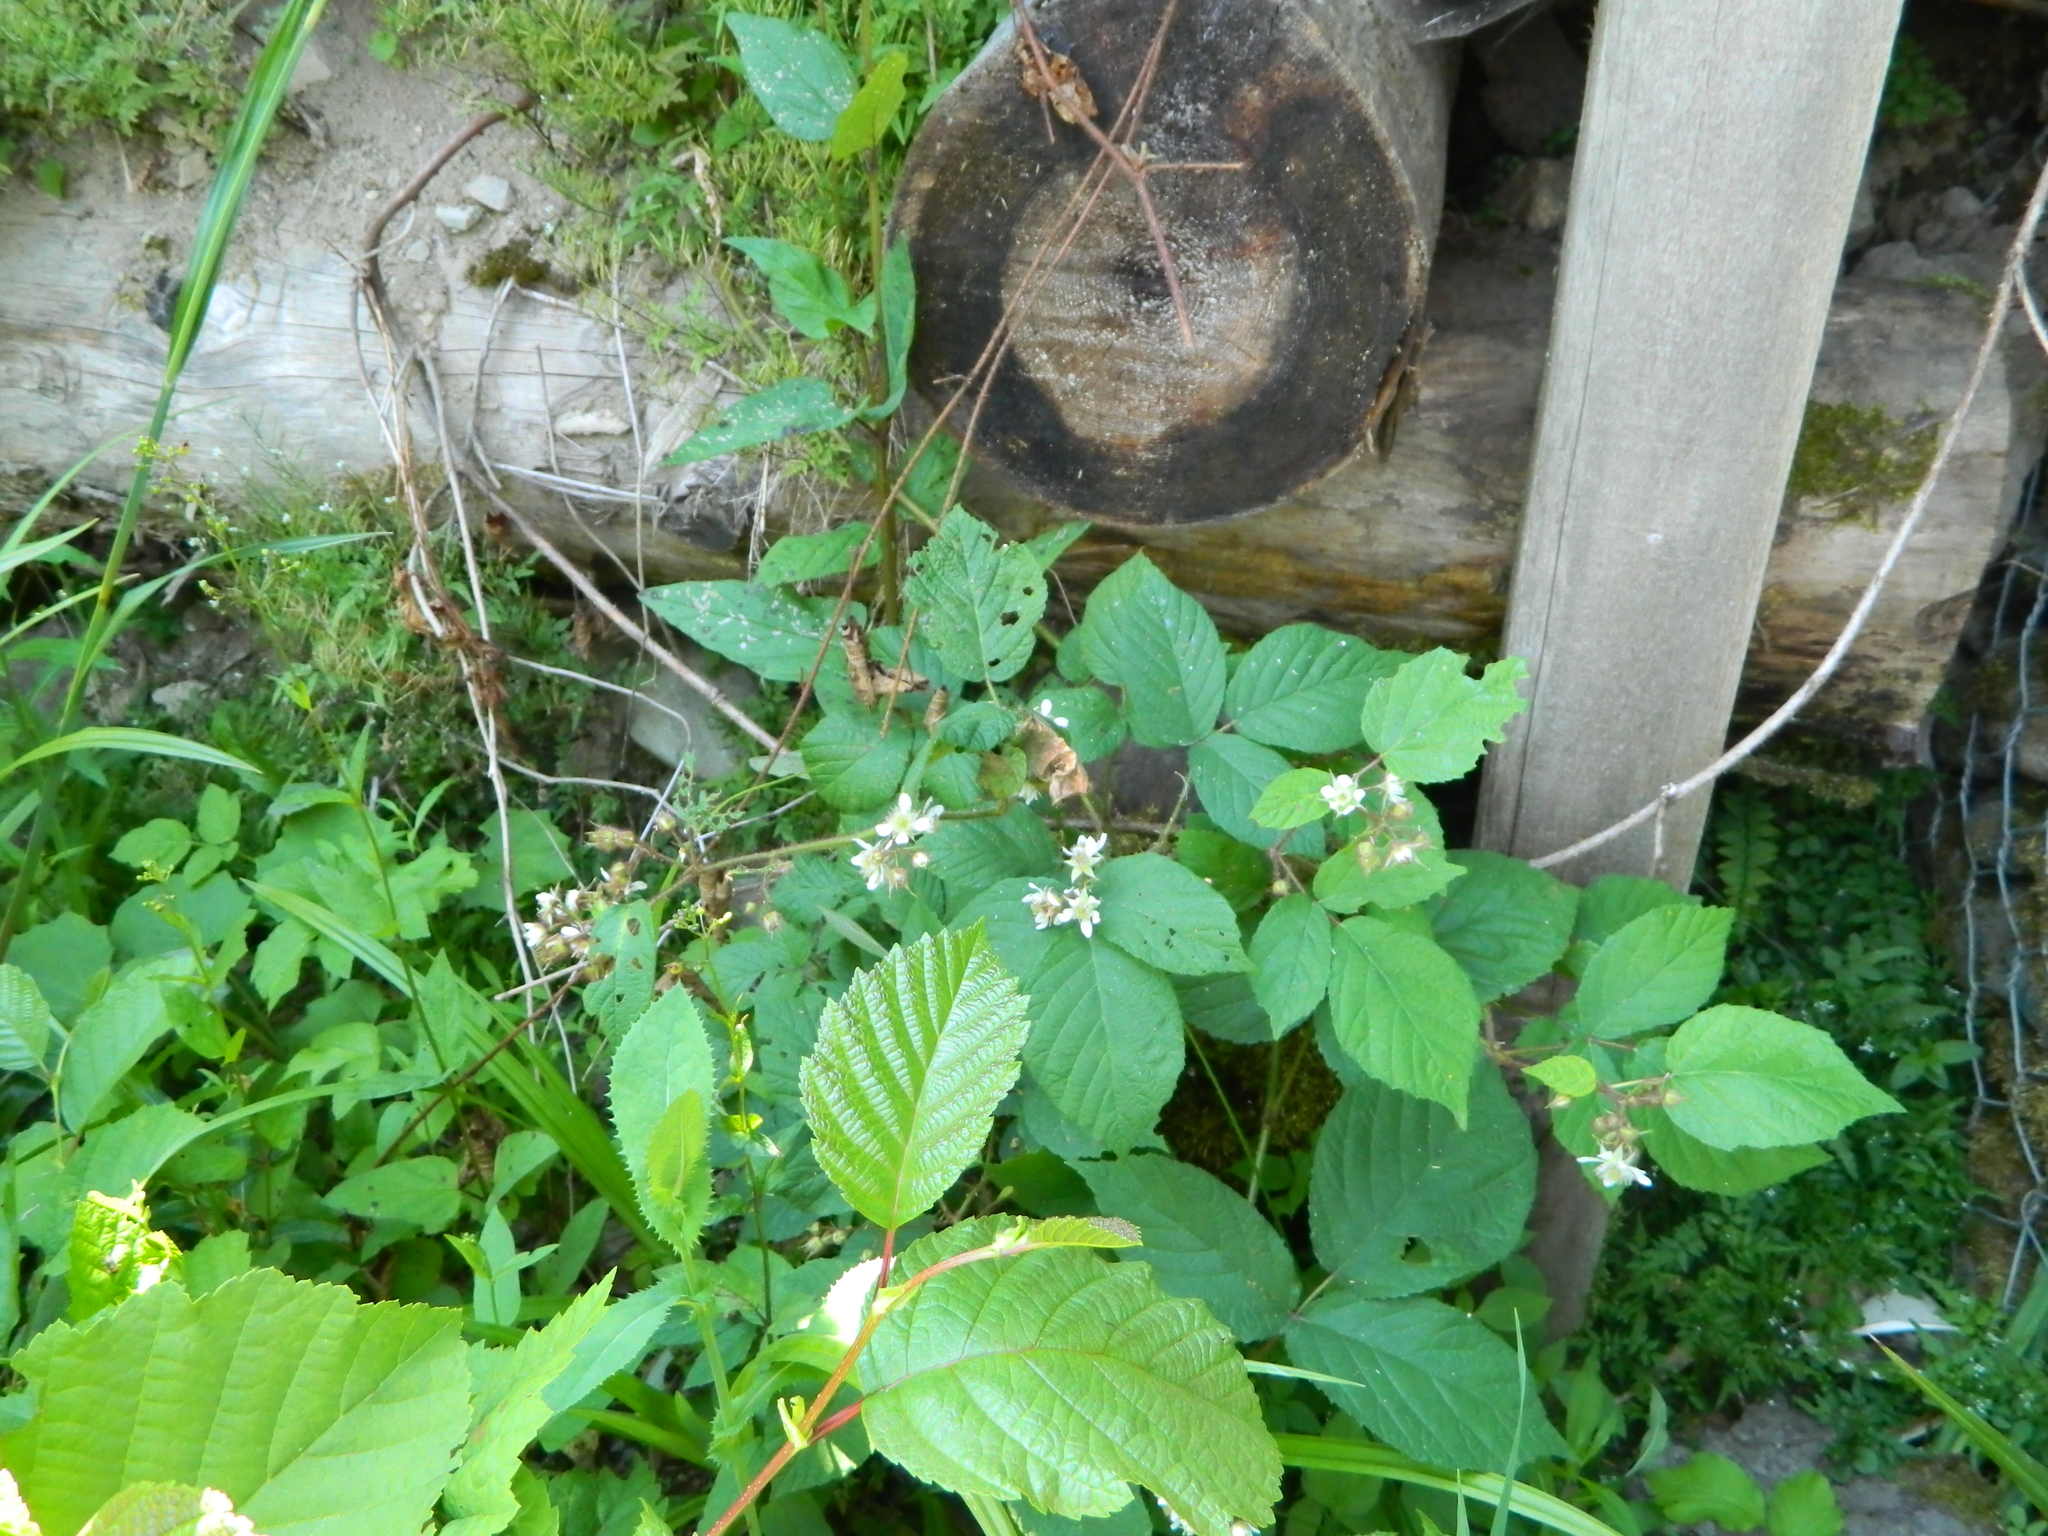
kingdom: Plantae
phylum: Tracheophyta
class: Magnoliopsida
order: Rosales
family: Rosaceae
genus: Rubus
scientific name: Rubus hirtus
